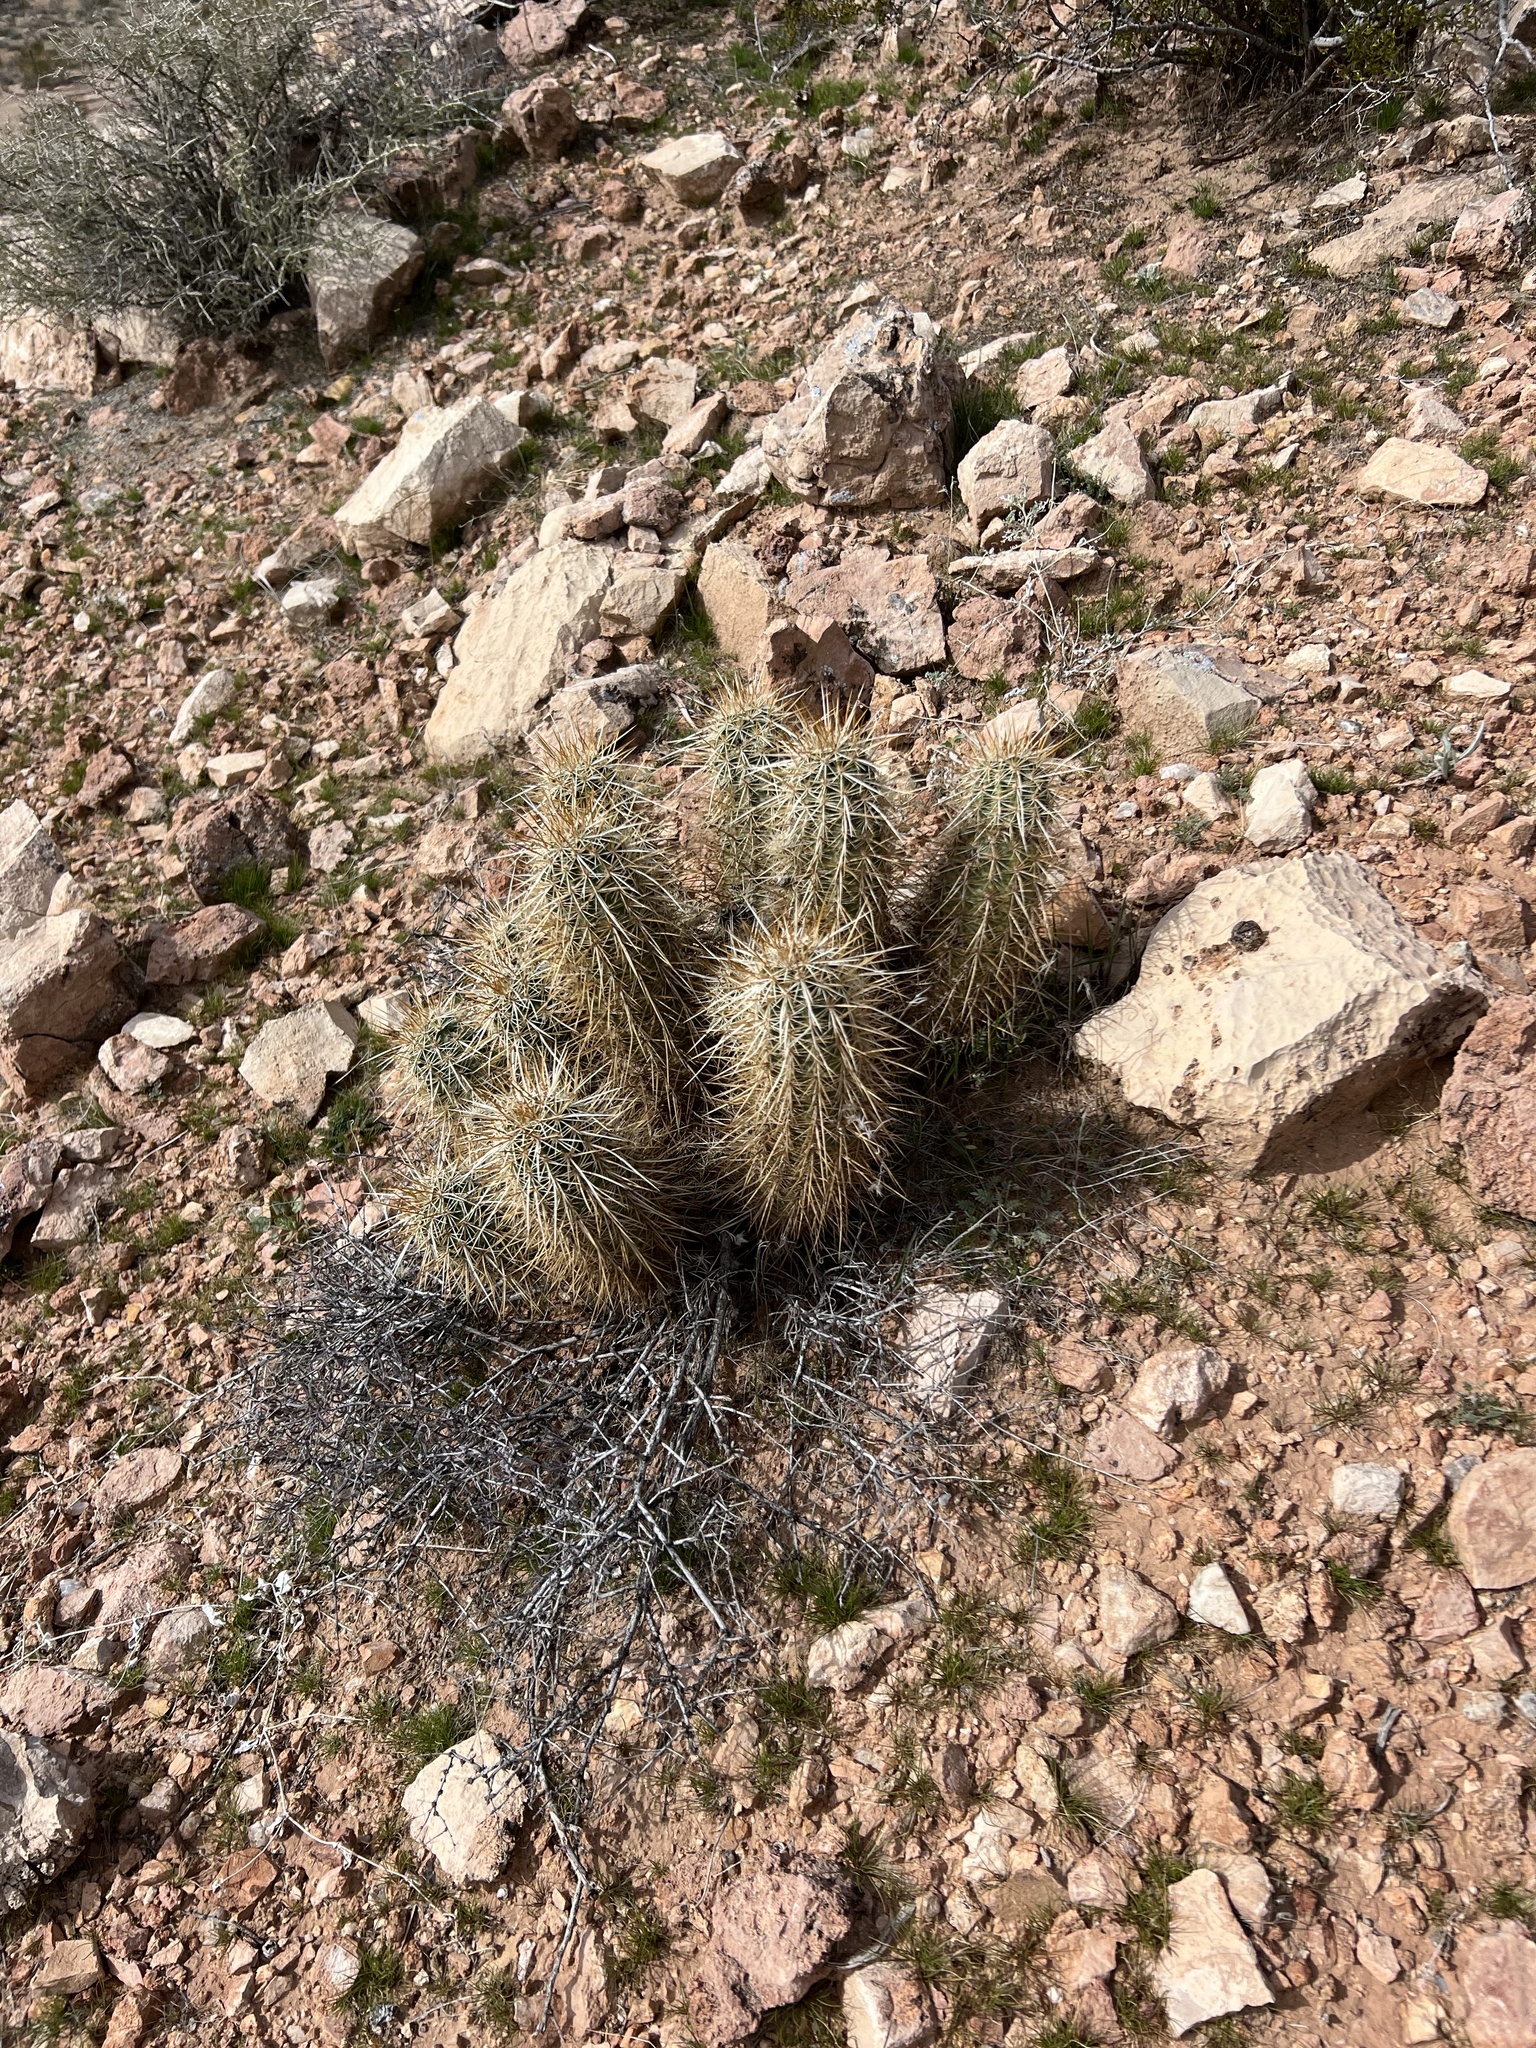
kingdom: Plantae
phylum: Tracheophyta
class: Magnoliopsida
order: Caryophyllales
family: Cactaceae
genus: Echinocereus
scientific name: Echinocereus engelmannii
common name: Engelmann's hedgehog cactus
